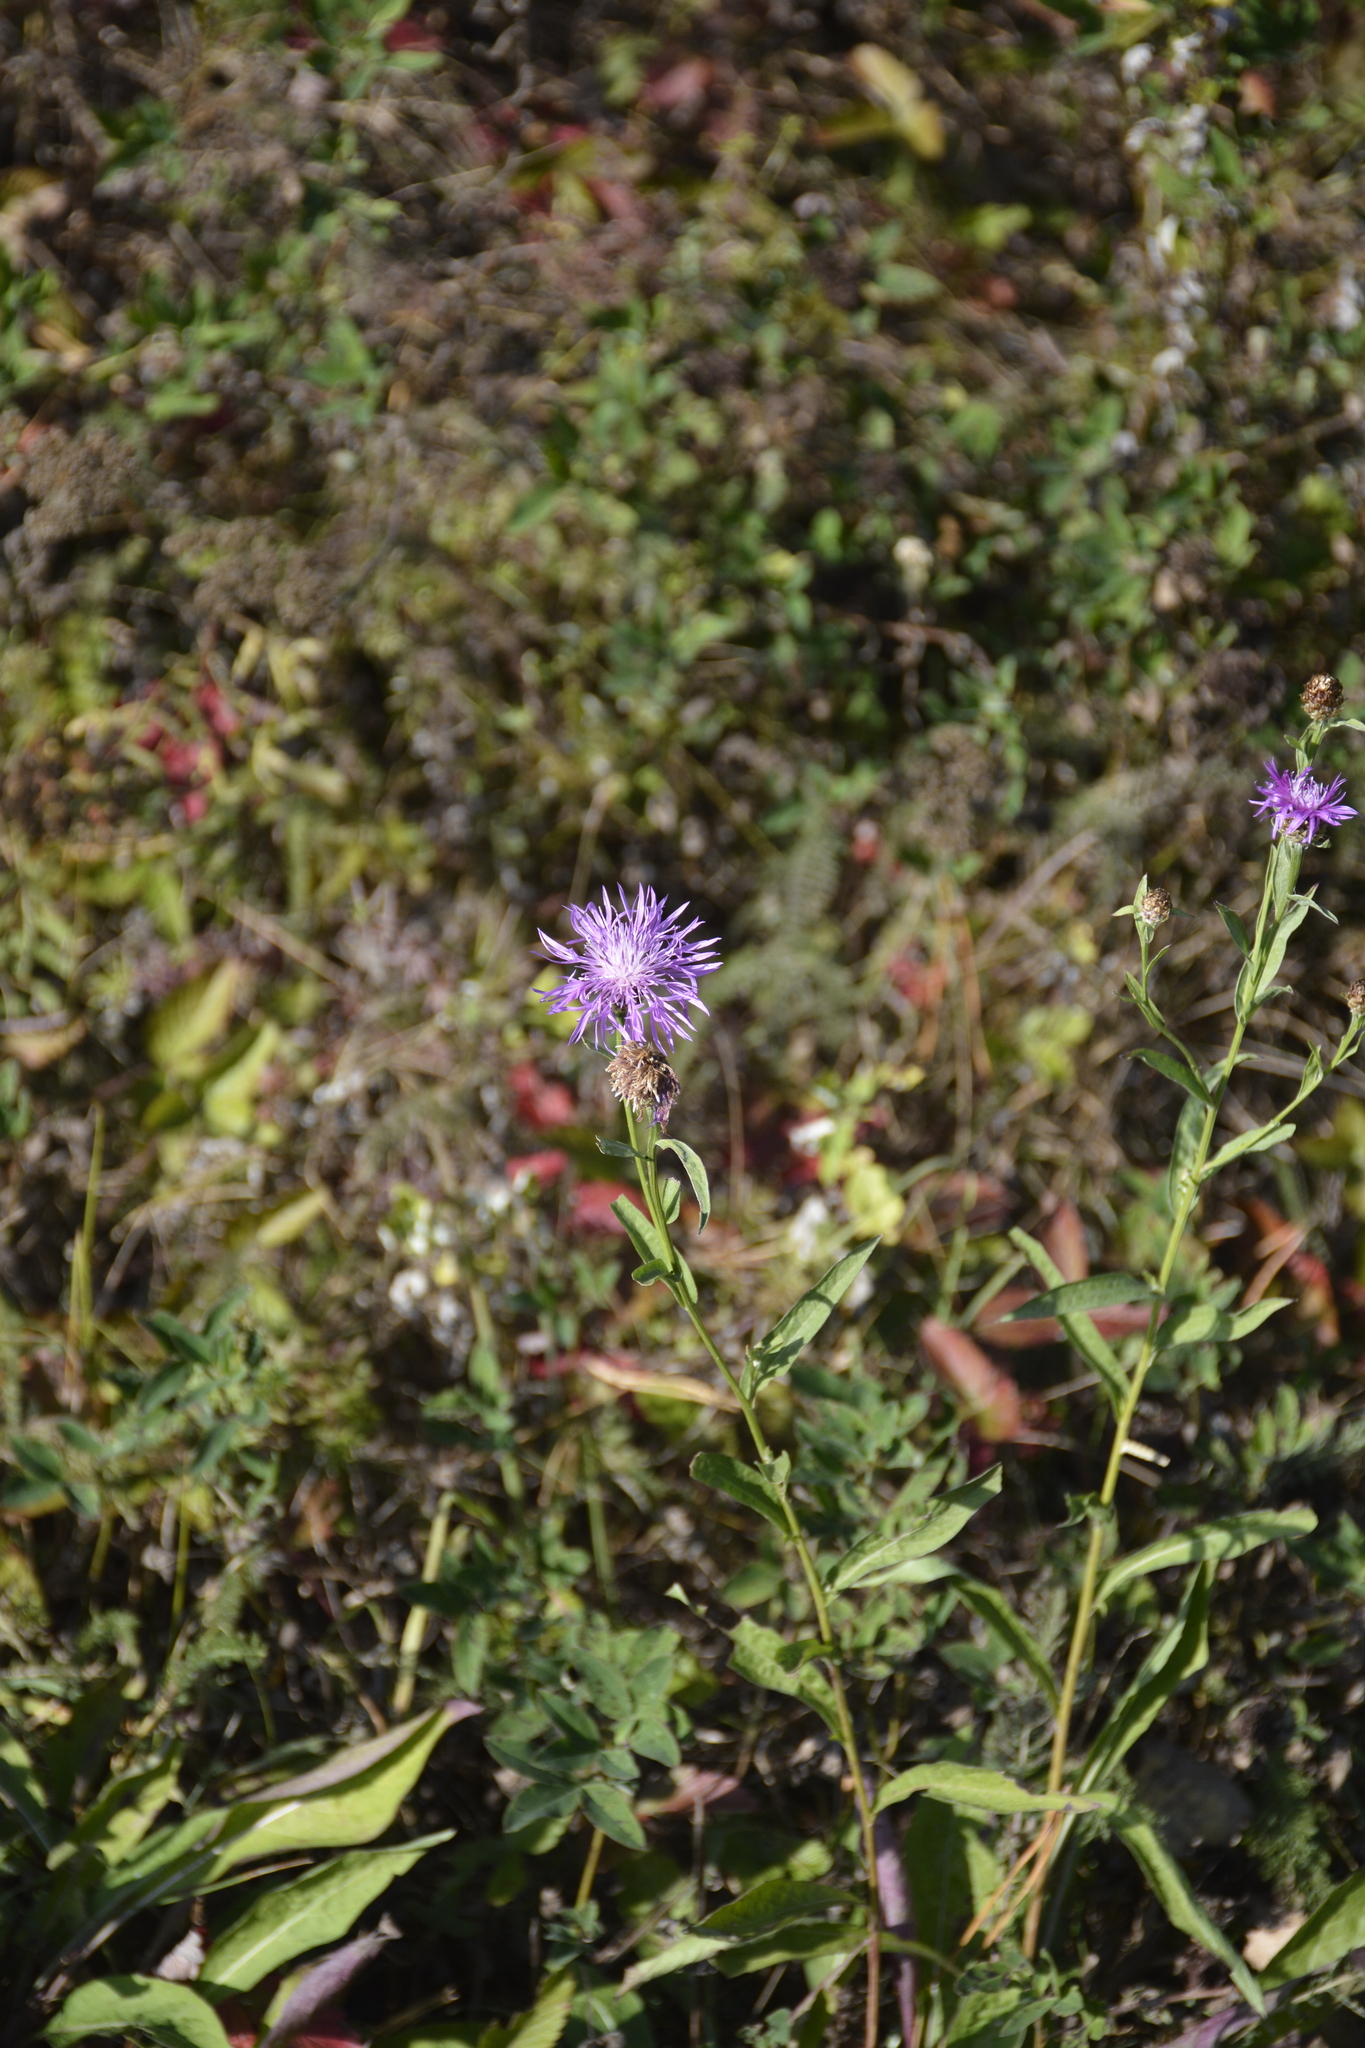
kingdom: Plantae
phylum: Tracheophyta
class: Magnoliopsida
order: Asterales
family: Asteraceae
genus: Centaurea
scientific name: Centaurea jacea
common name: Brown knapweed
